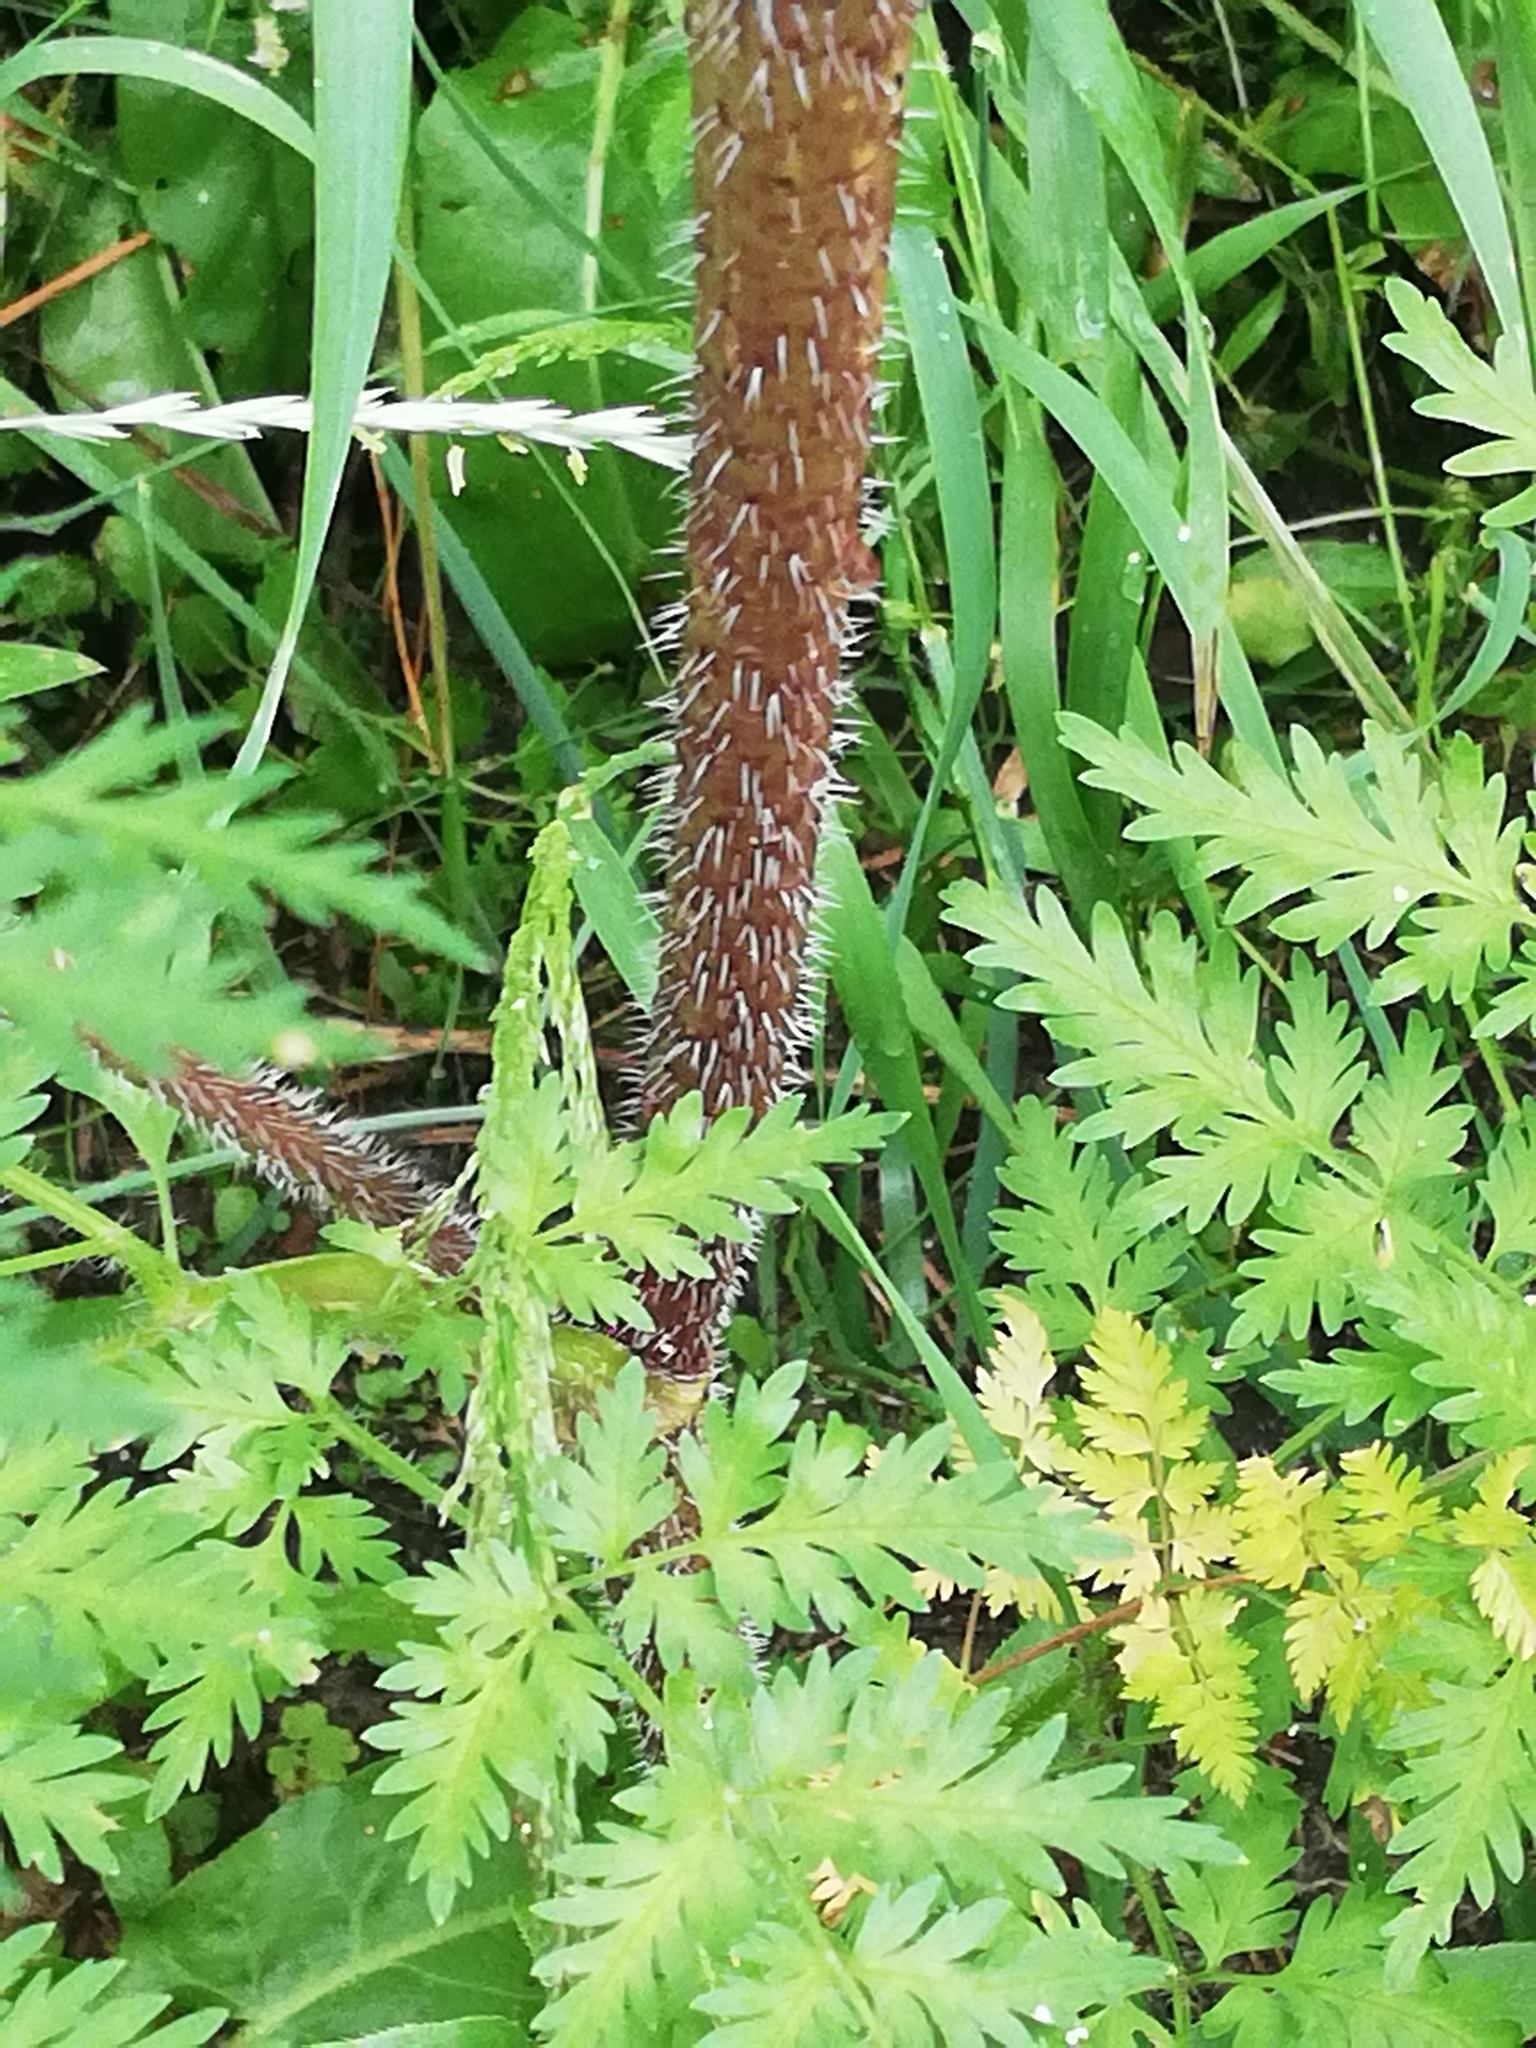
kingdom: Plantae
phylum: Tracheophyta
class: Magnoliopsida
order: Apiales
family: Apiaceae
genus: Chaerophyllum
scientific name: Chaerophyllum prescottii
